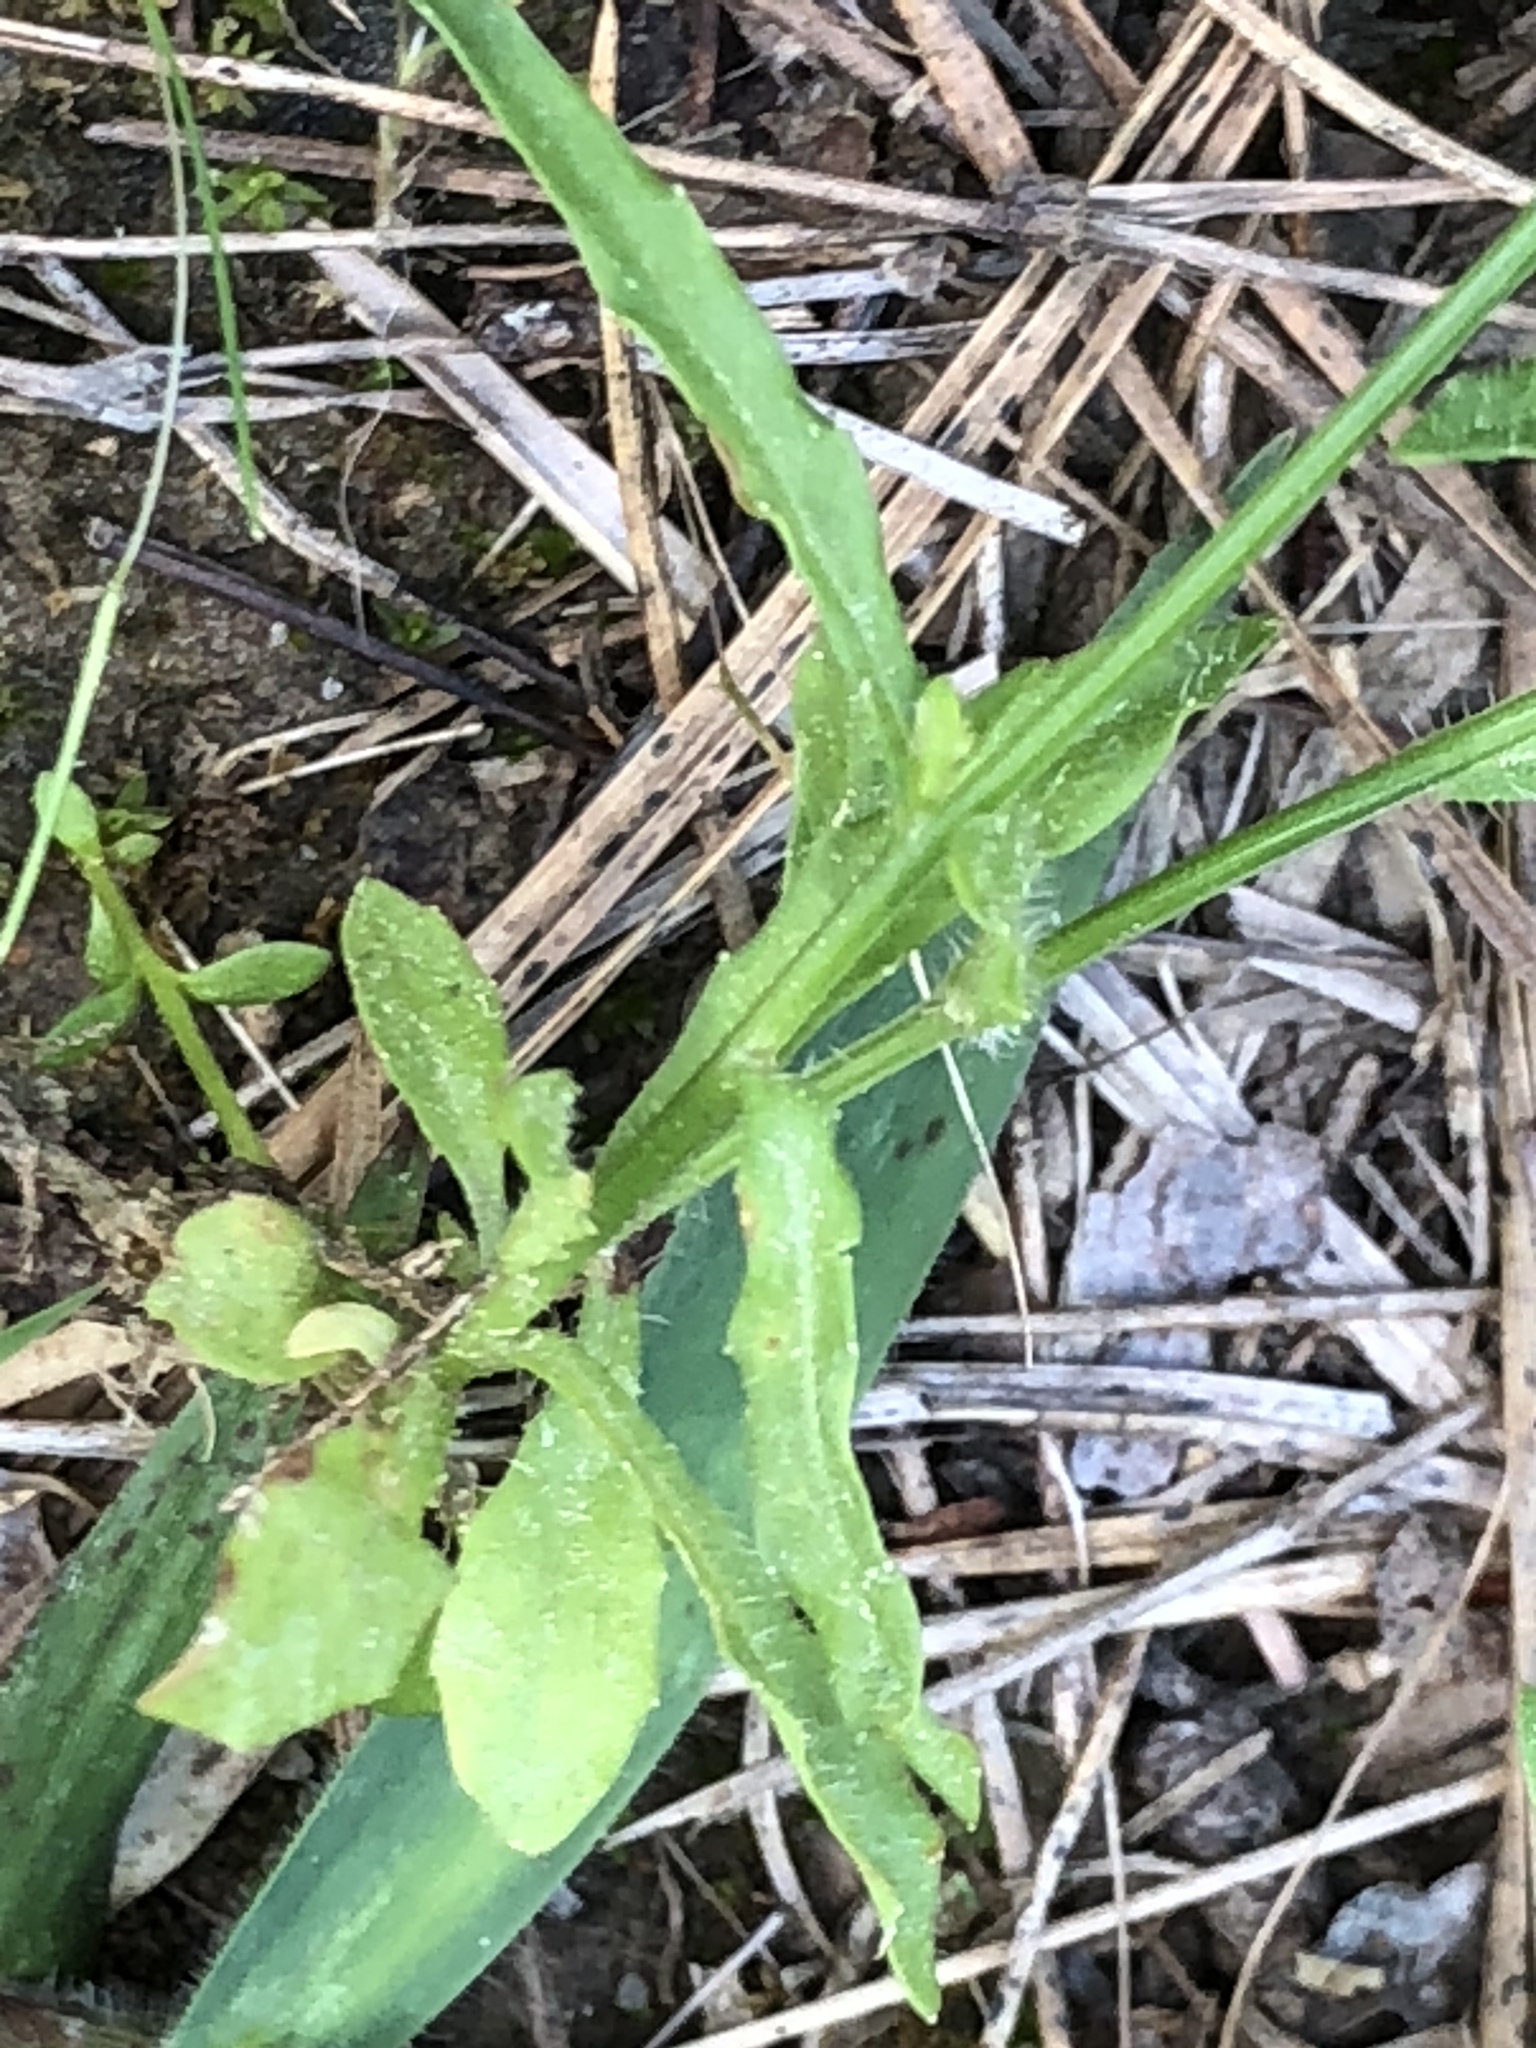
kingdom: Plantae
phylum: Tracheophyta
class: Magnoliopsida
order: Asterales
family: Campanulaceae
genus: Wahlenbergia
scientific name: Wahlenbergia marginata
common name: Southern rockbell
